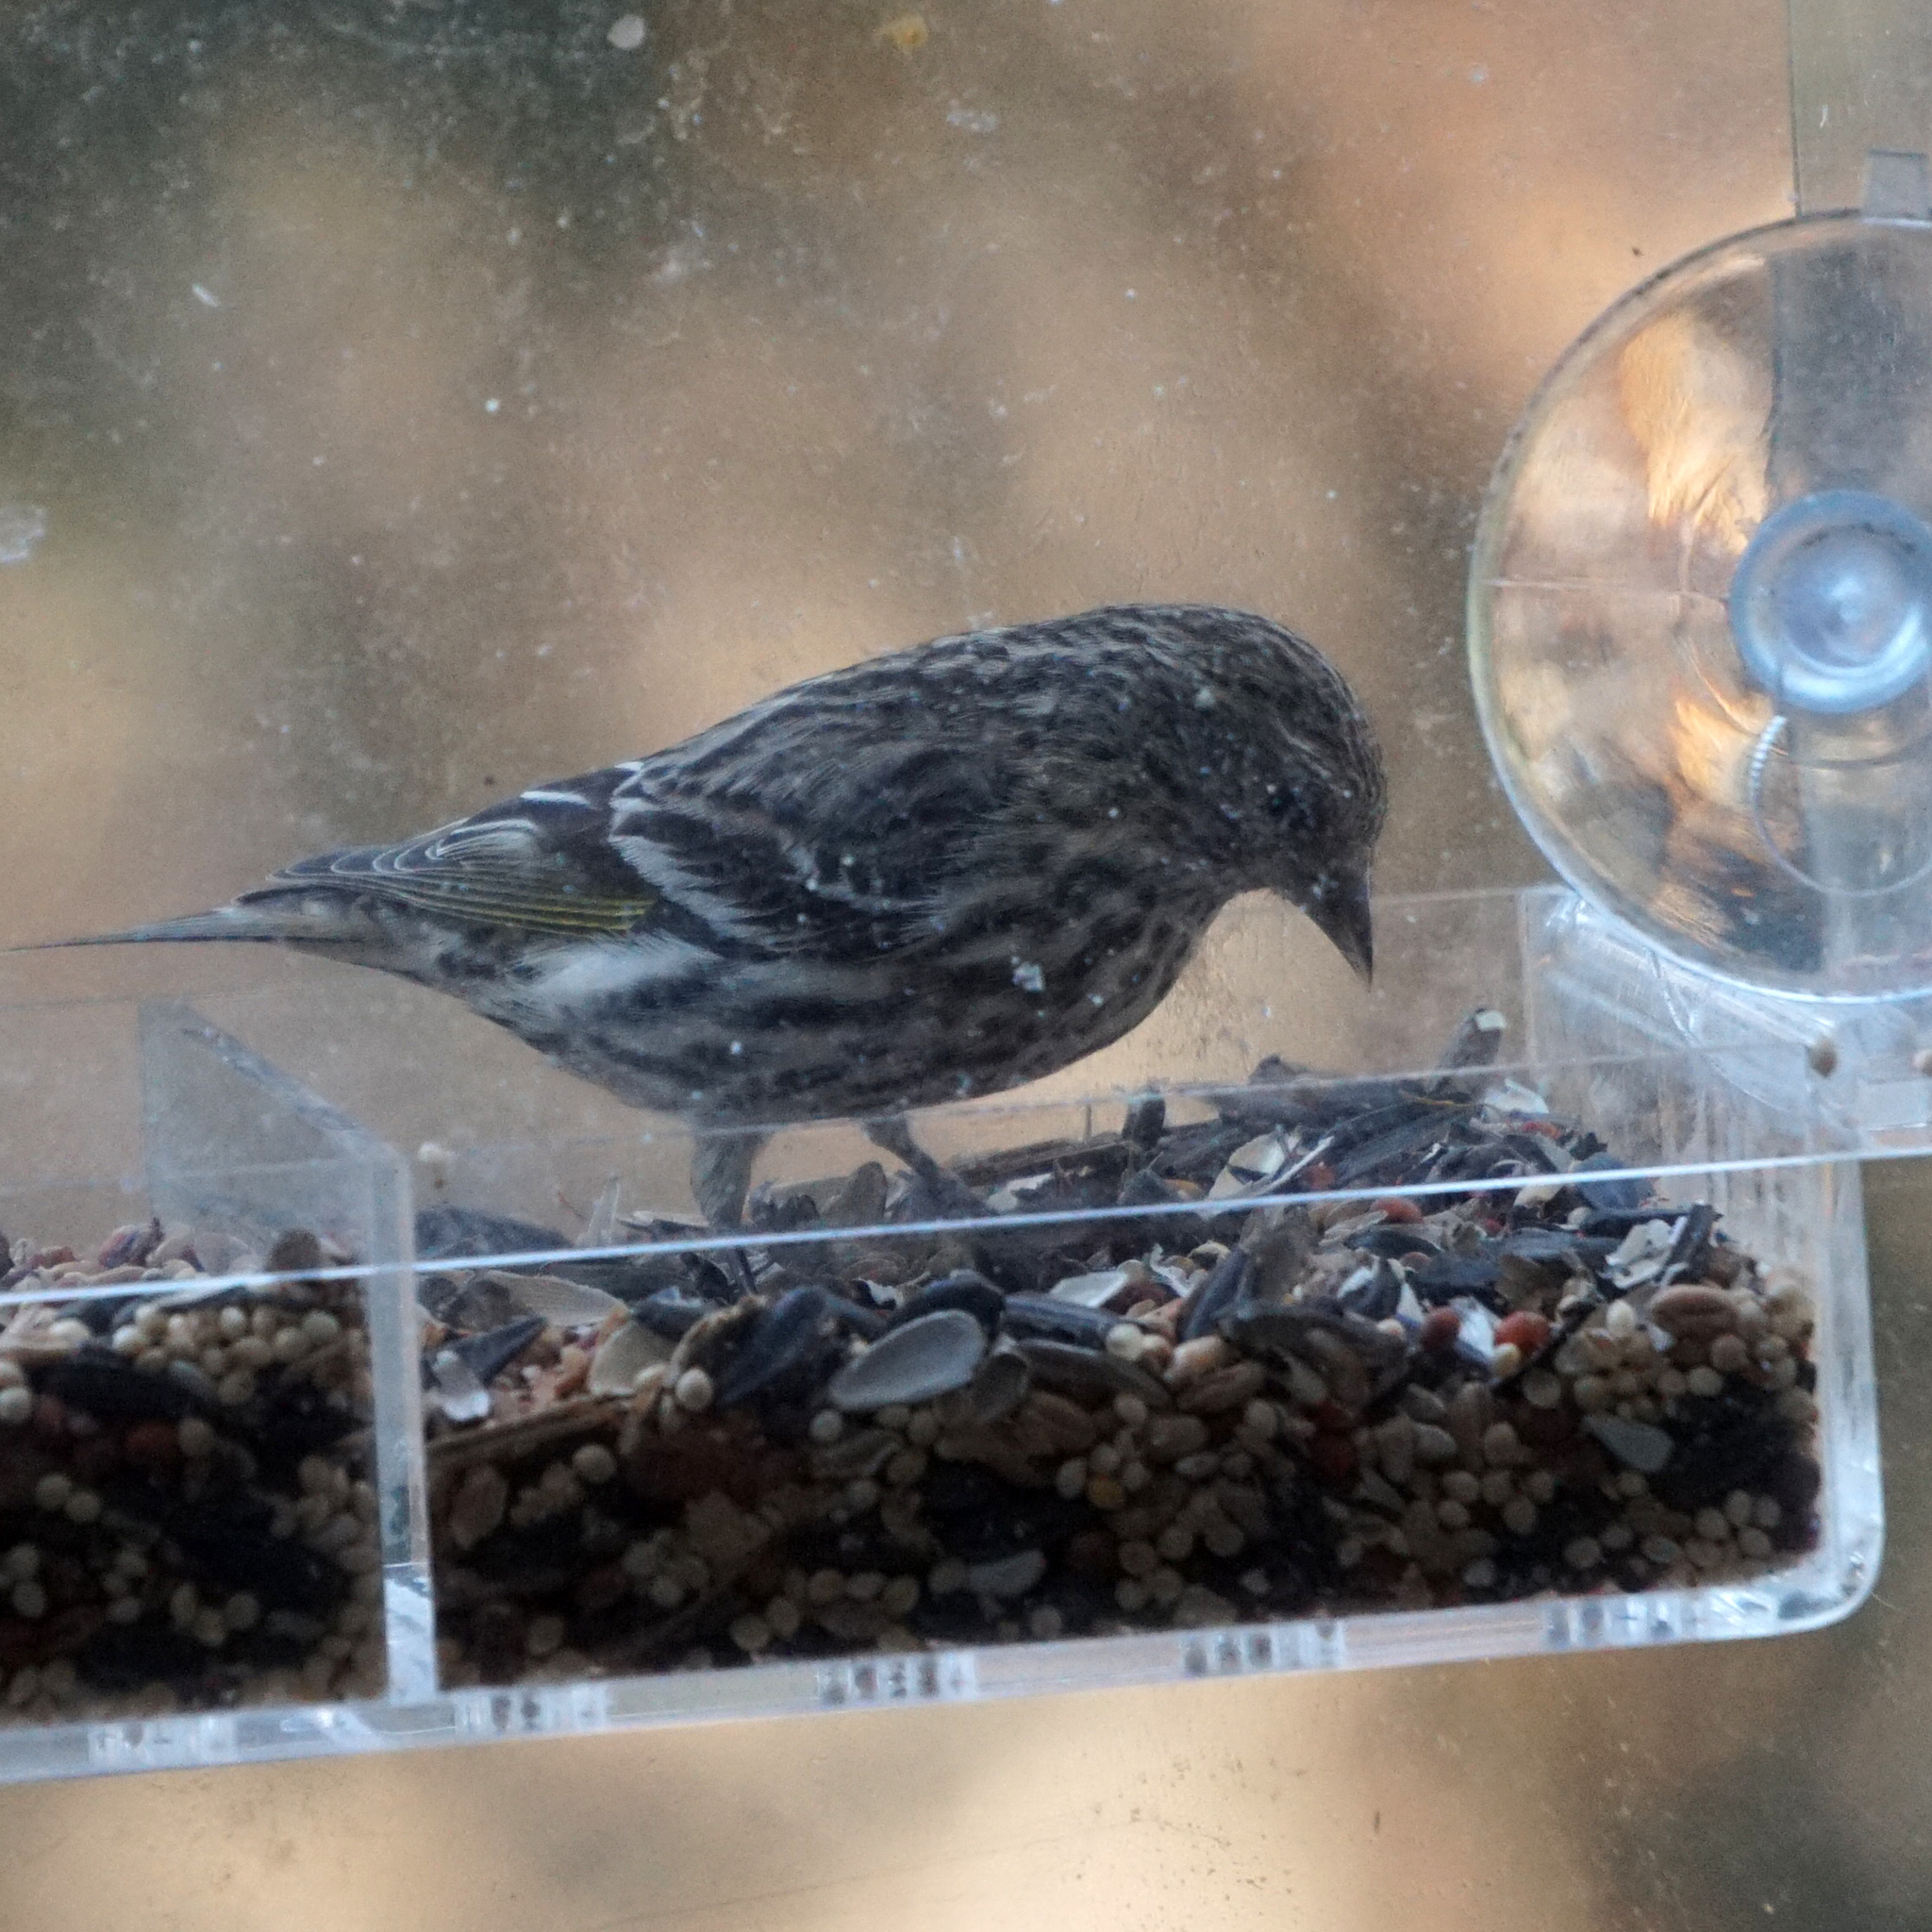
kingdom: Animalia
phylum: Chordata
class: Aves
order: Passeriformes
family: Fringillidae
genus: Spinus
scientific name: Spinus pinus
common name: Pine siskin
